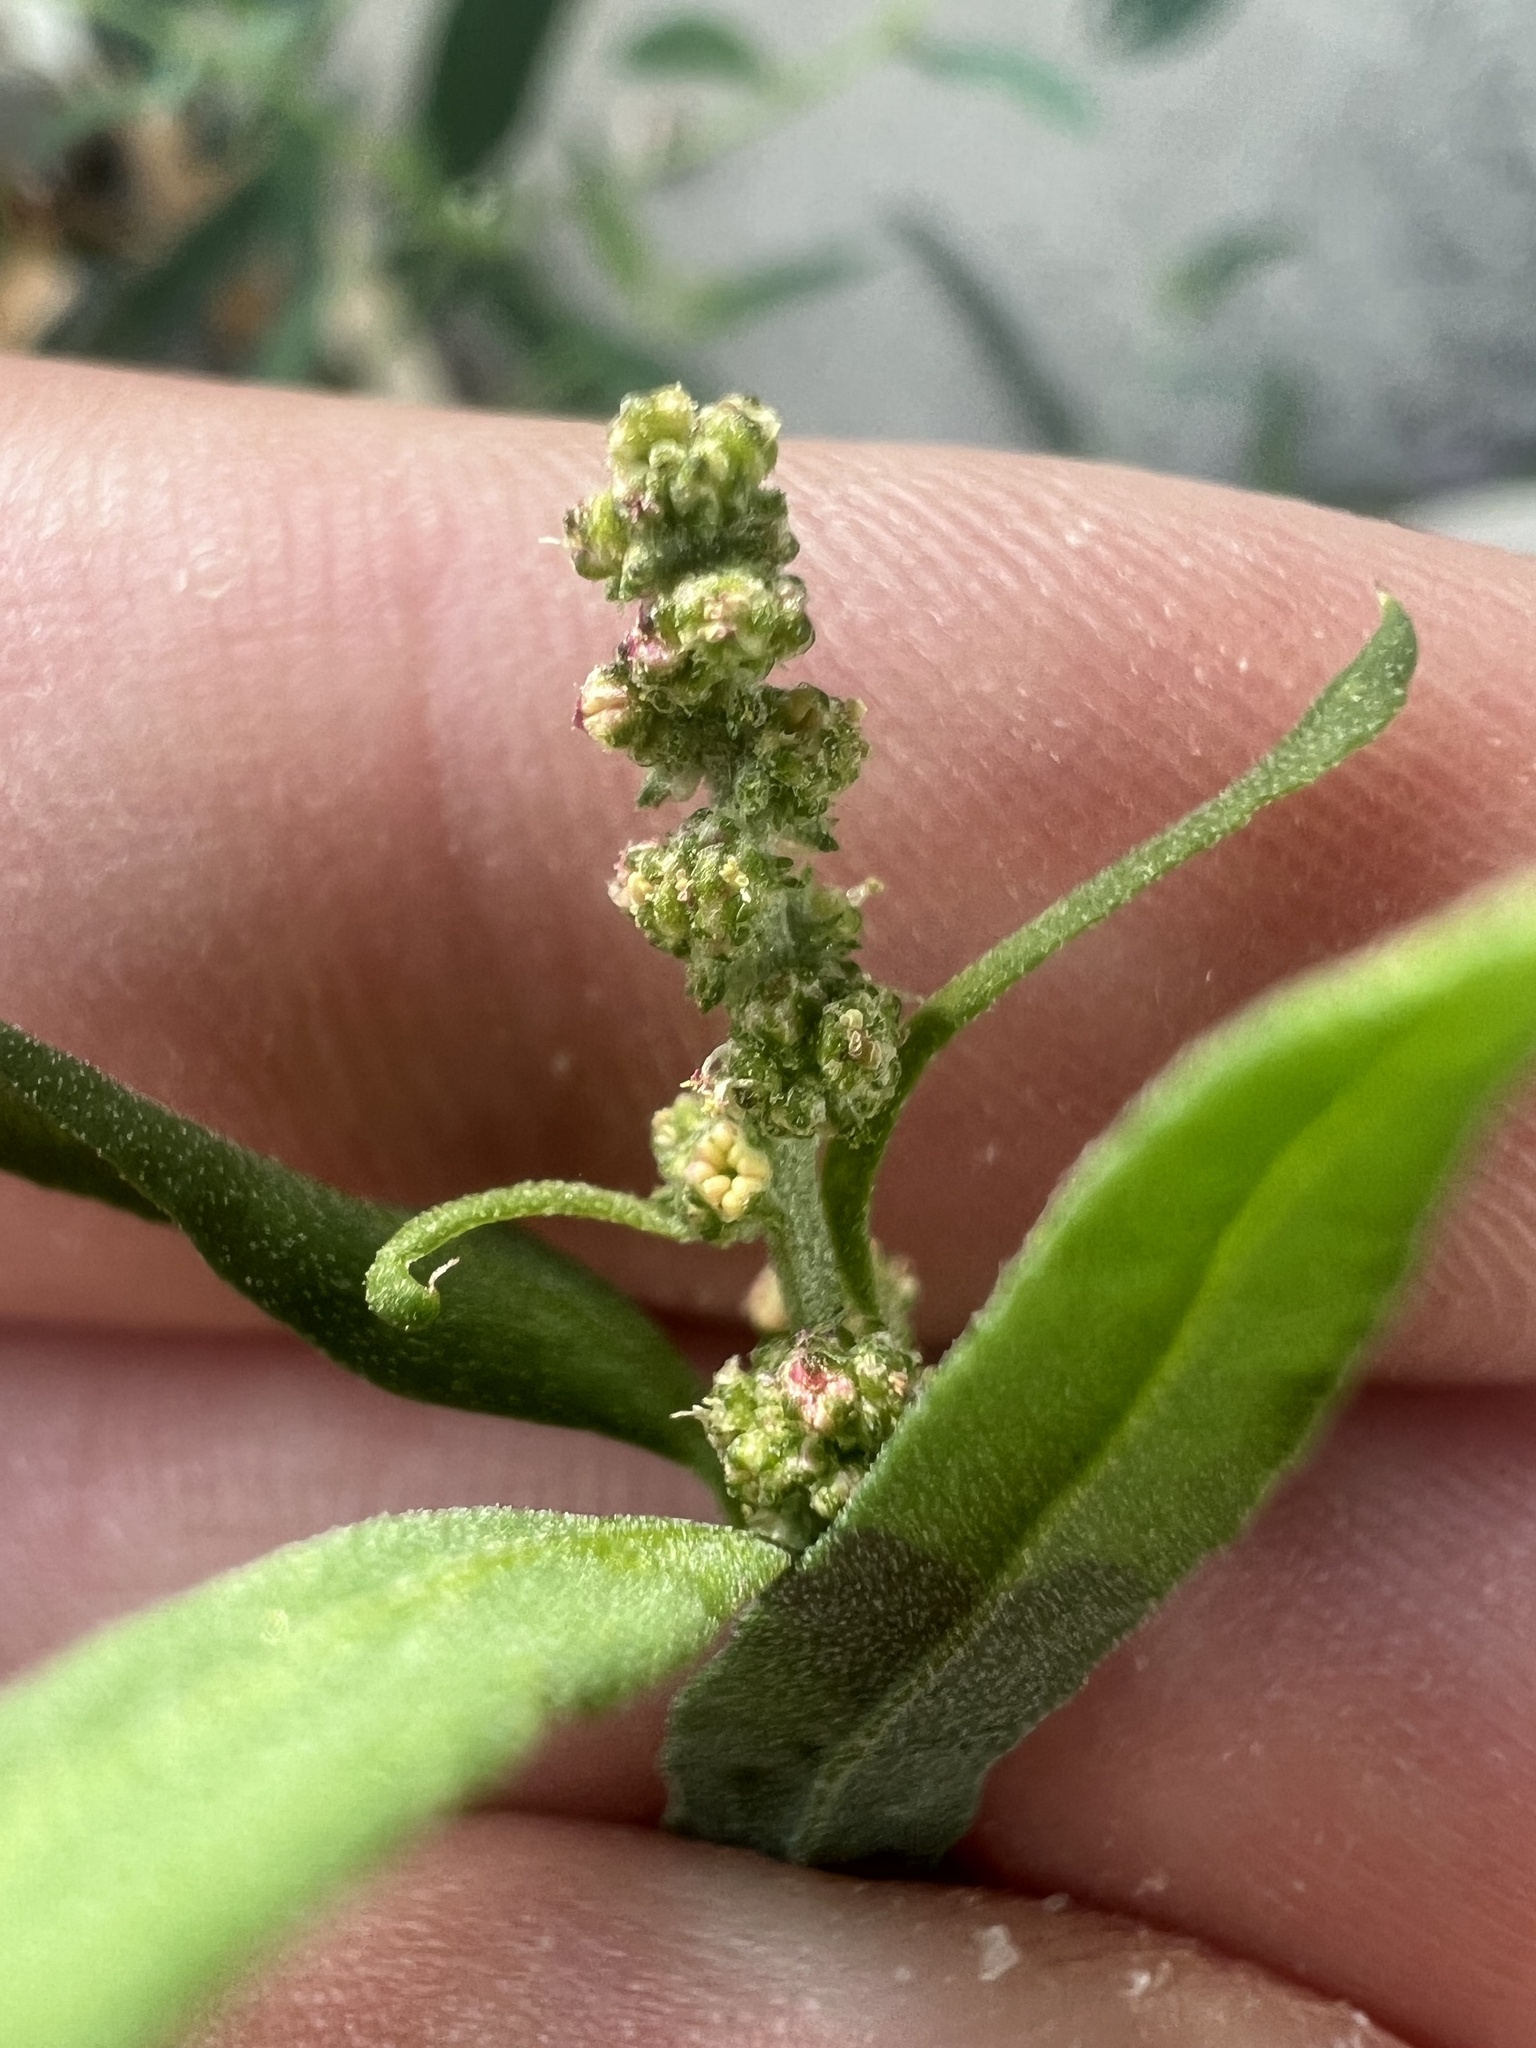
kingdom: Plantae
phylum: Tracheophyta
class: Magnoliopsida
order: Caryophyllales
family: Amaranthaceae
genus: Atriplex
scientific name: Atriplex patula
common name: Common orache
